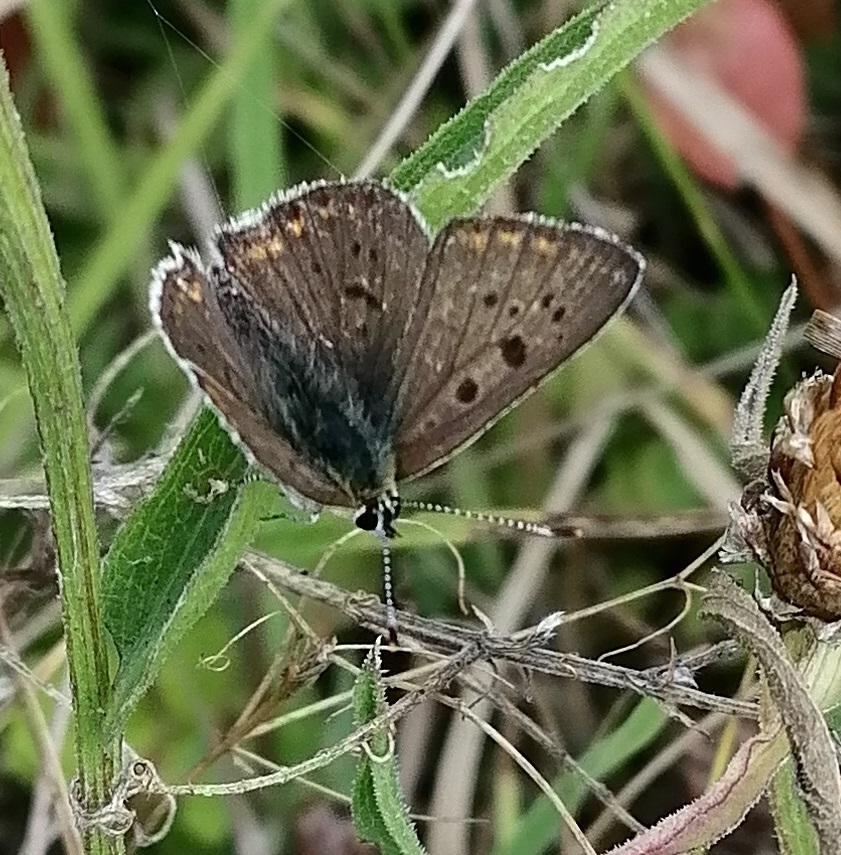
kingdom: Animalia
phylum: Arthropoda
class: Insecta
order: Lepidoptera
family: Lycaenidae
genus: Loweia
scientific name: Loweia tityrus
